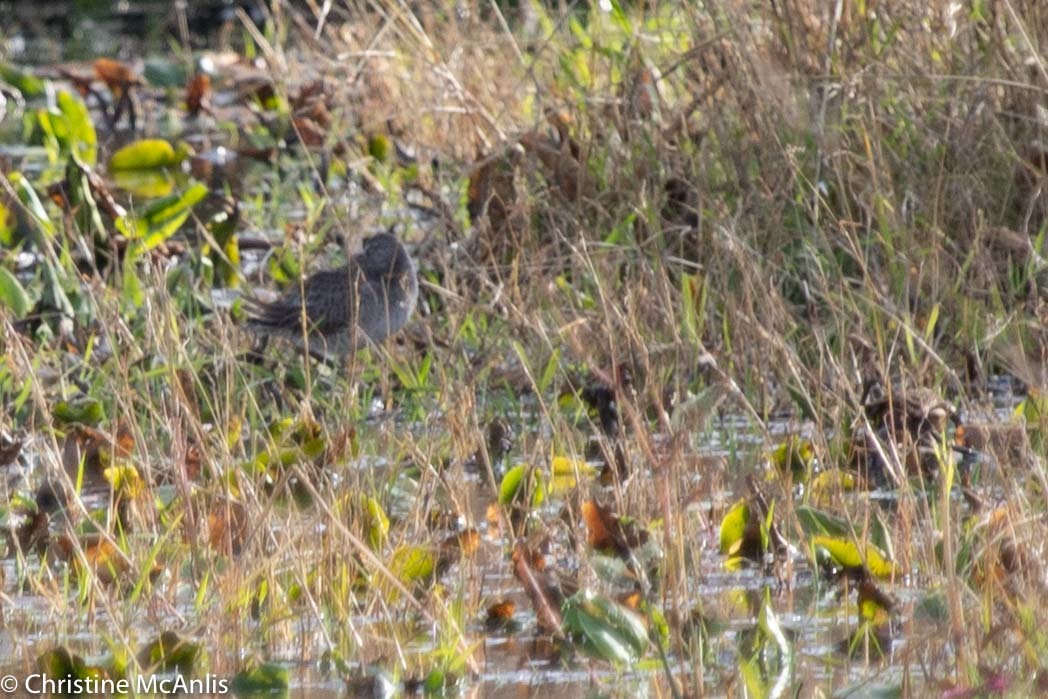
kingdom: Animalia
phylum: Chordata
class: Aves
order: Charadriiformes
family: Scolopacidae
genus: Limnodromus
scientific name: Limnodromus
